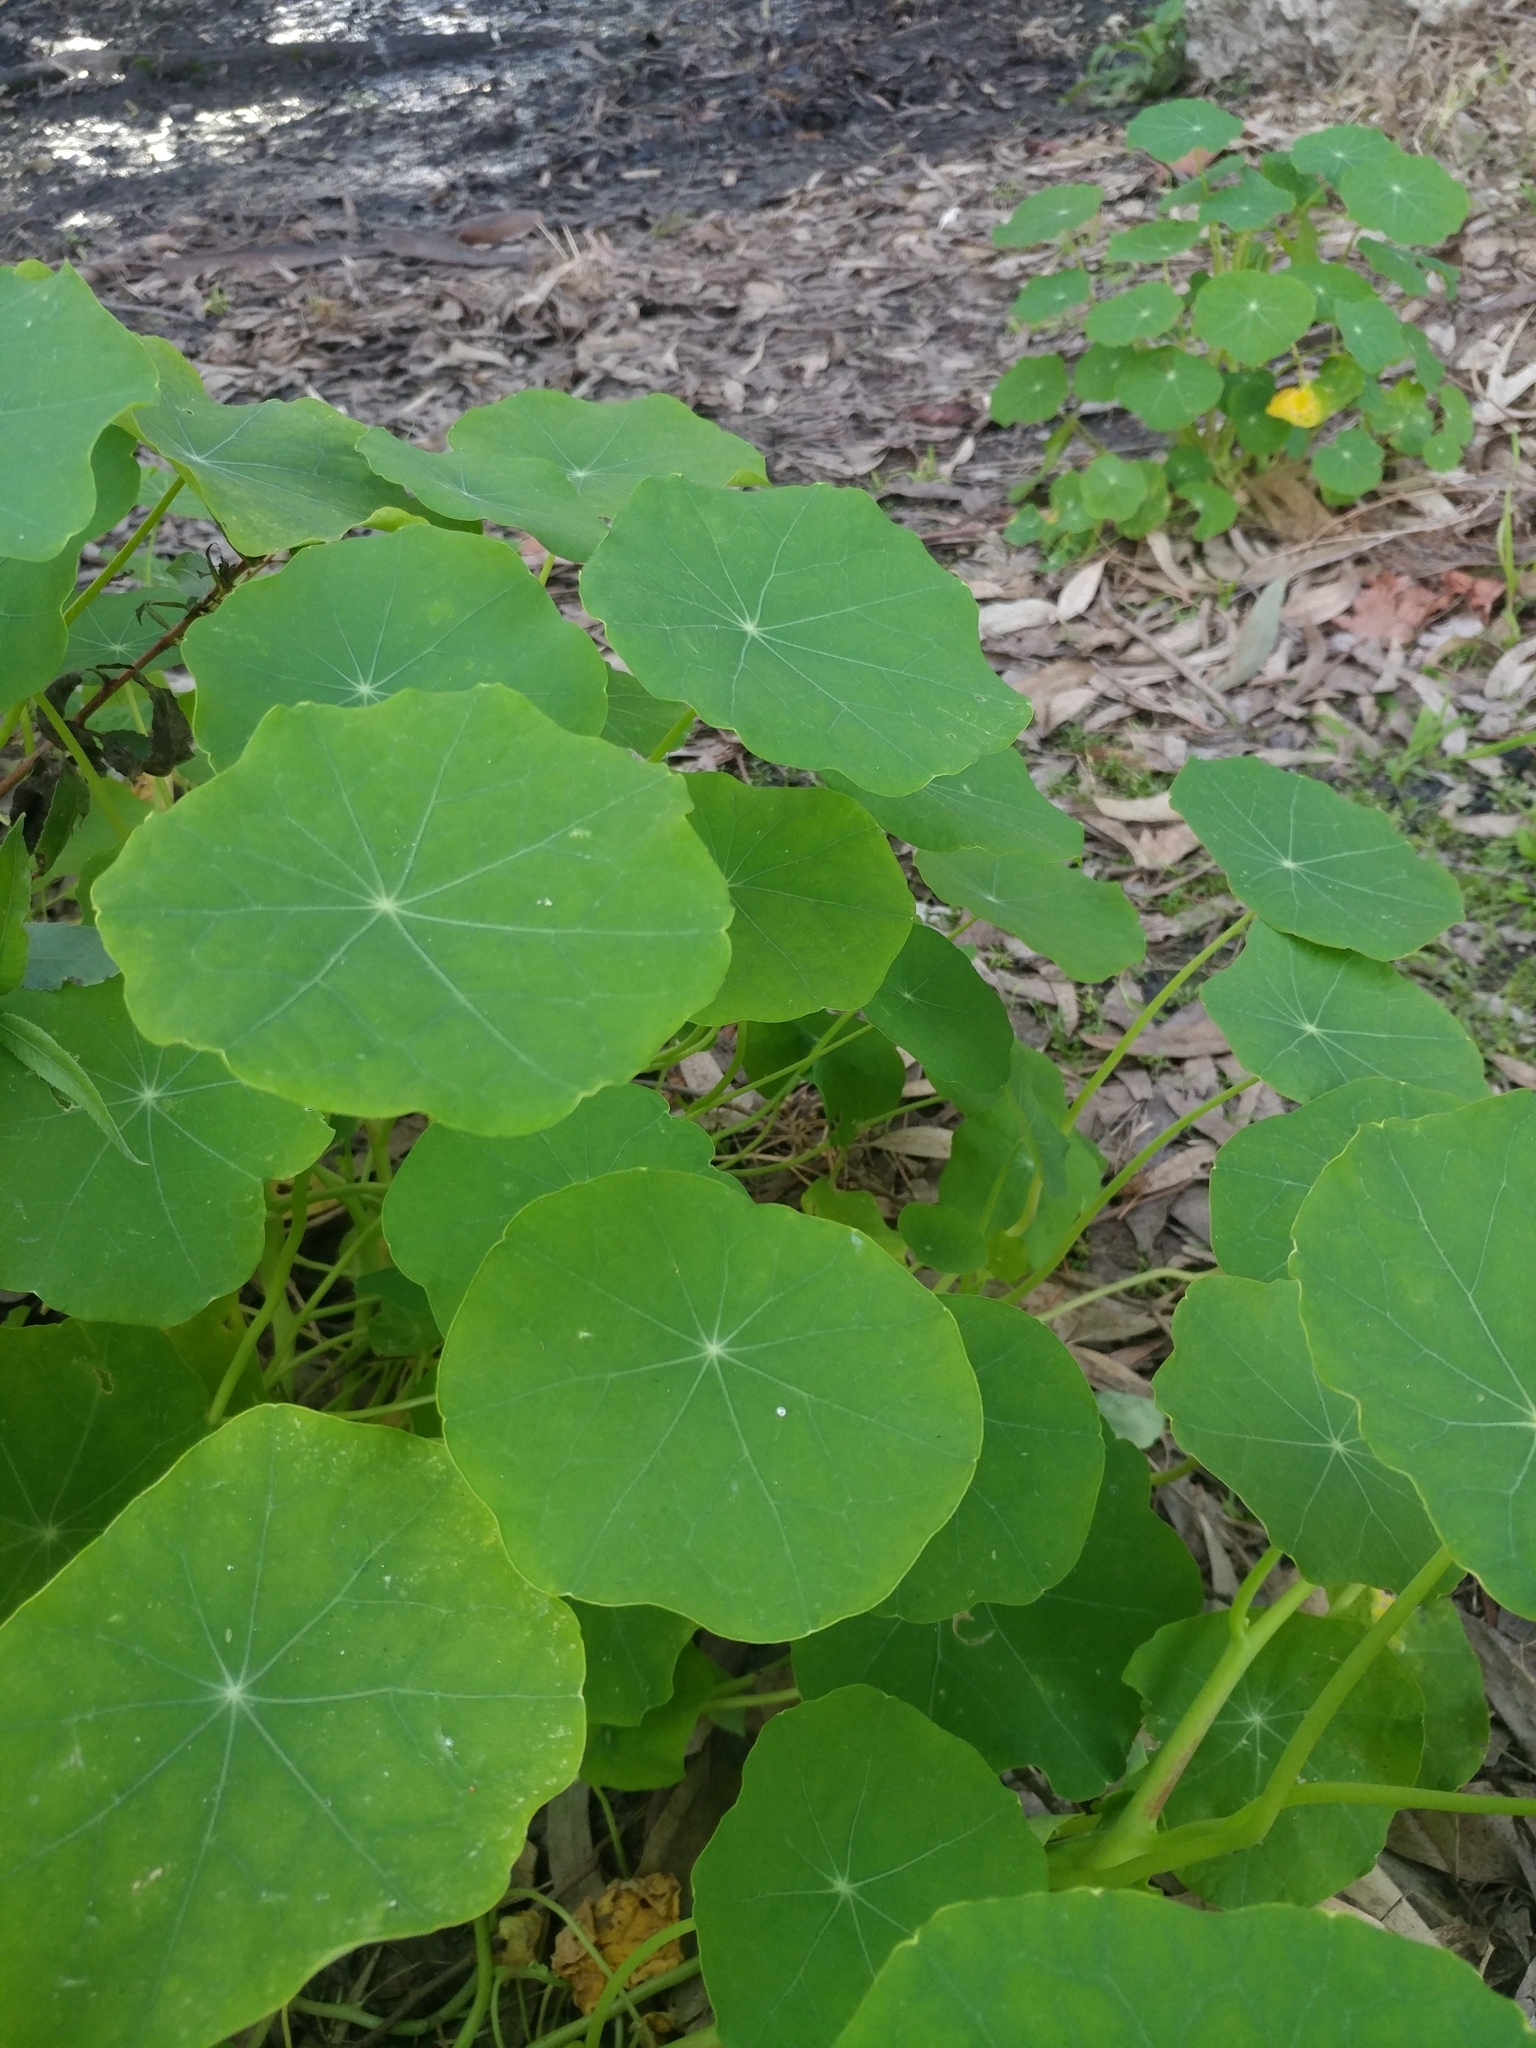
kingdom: Plantae
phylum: Tracheophyta
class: Magnoliopsida
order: Brassicales
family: Tropaeolaceae
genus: Tropaeolum
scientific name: Tropaeolum majus
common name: Nasturtium
